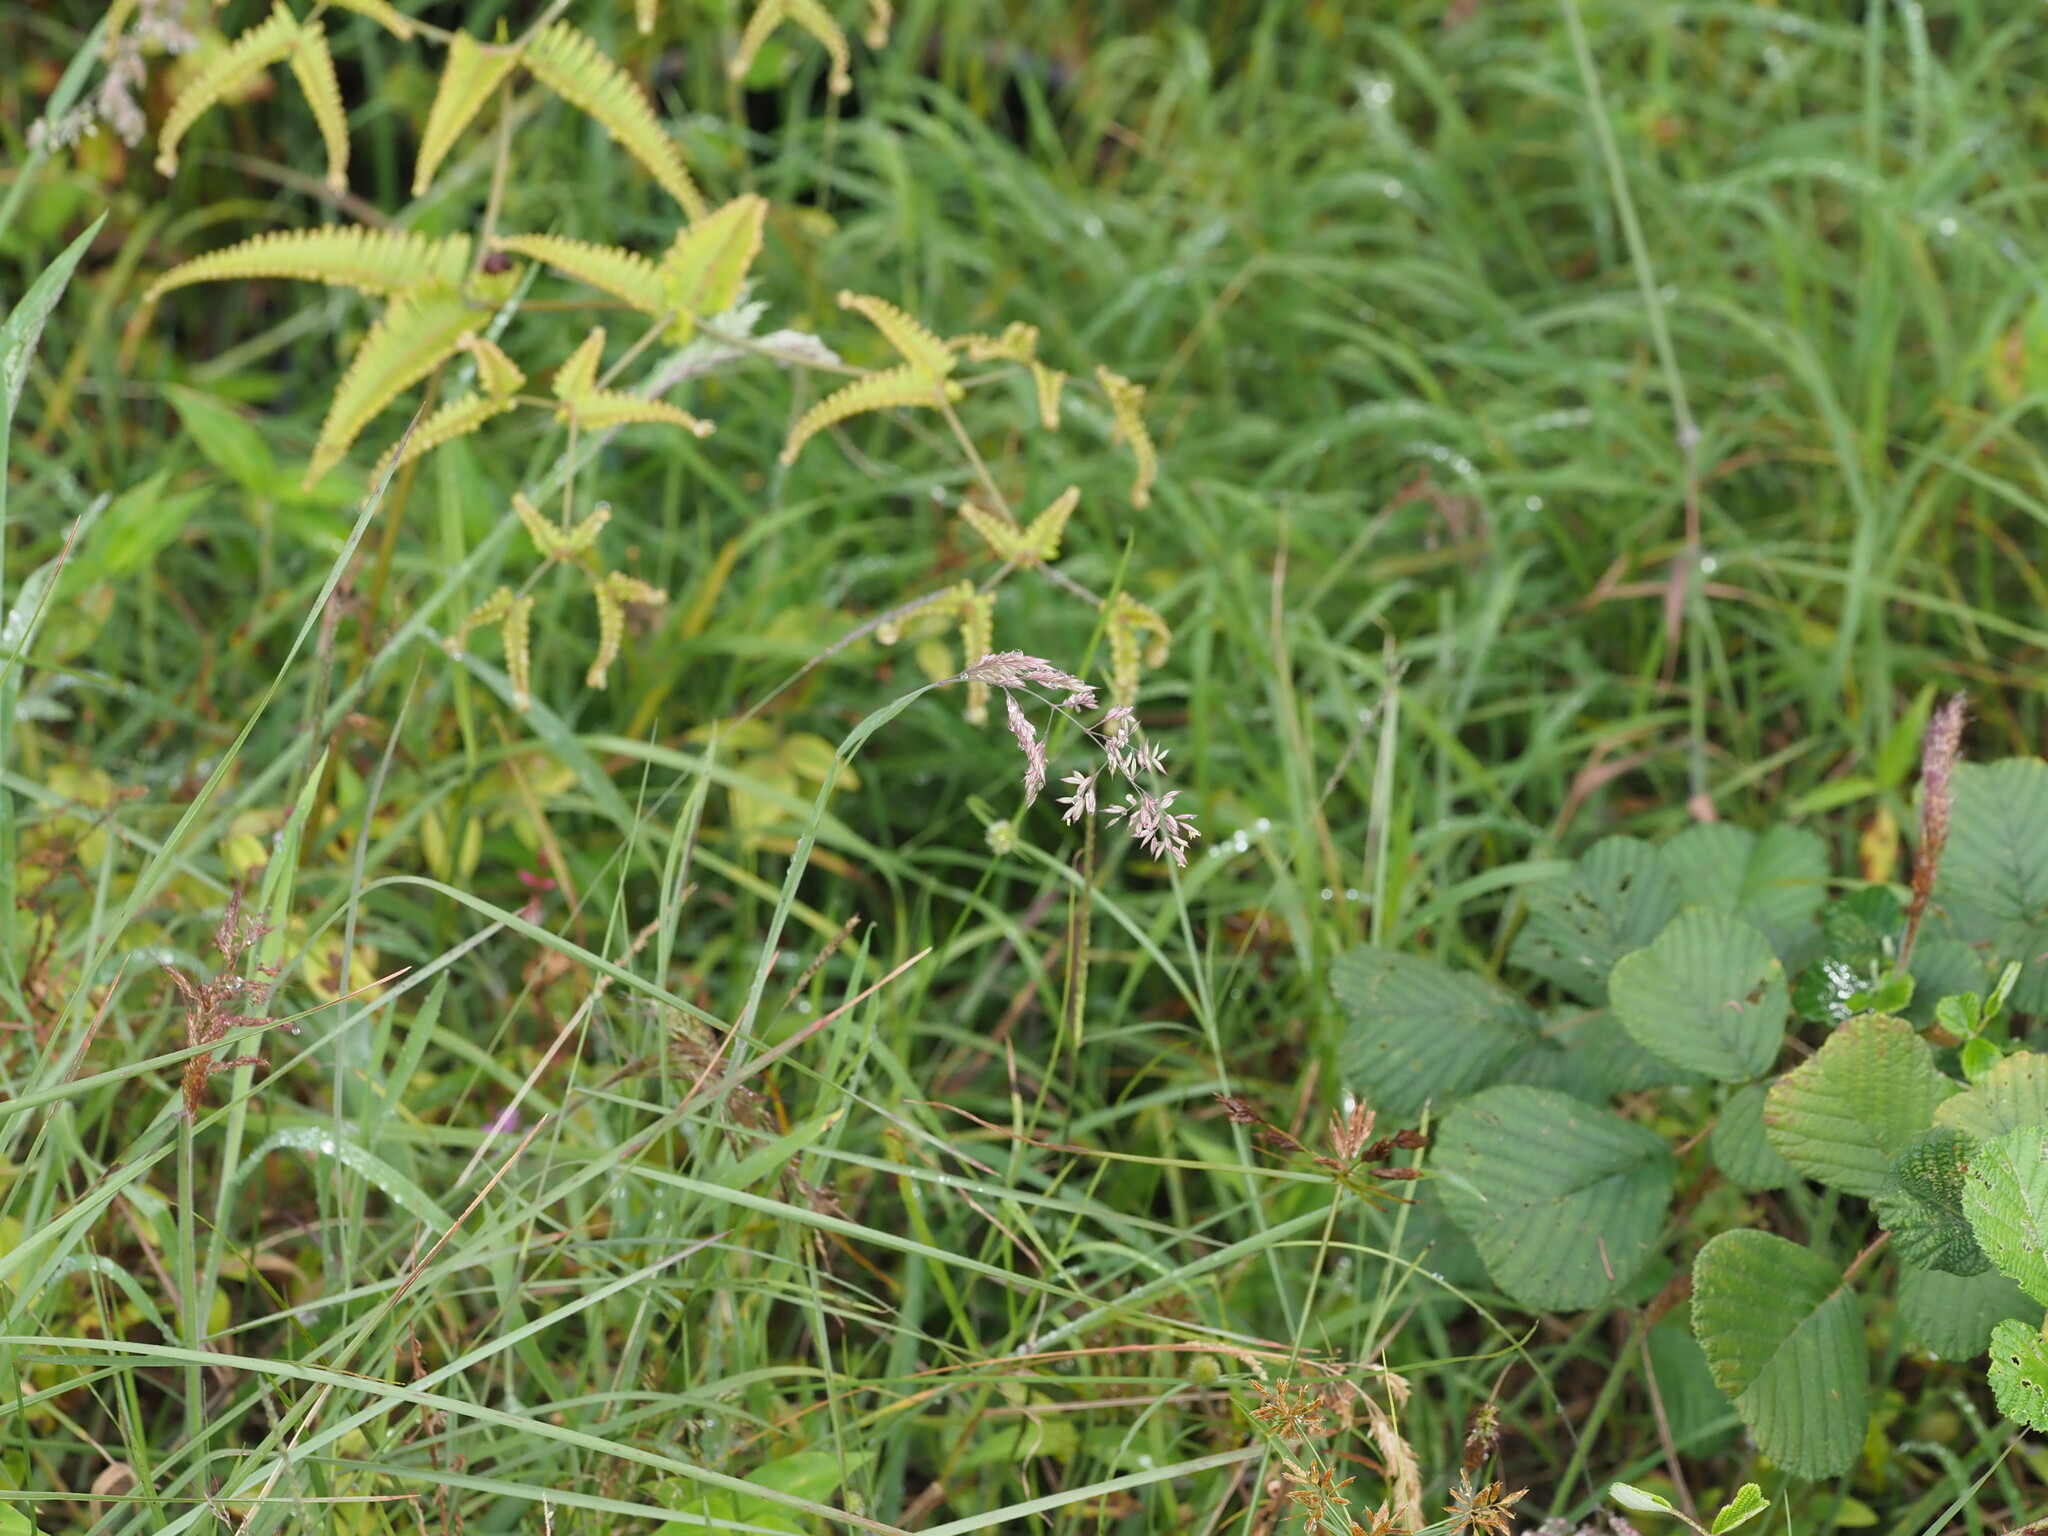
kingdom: Plantae
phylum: Tracheophyta
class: Liliopsida
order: Poales
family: Poaceae
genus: Holcus
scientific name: Holcus lanatus
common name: Yorkshire-fog
